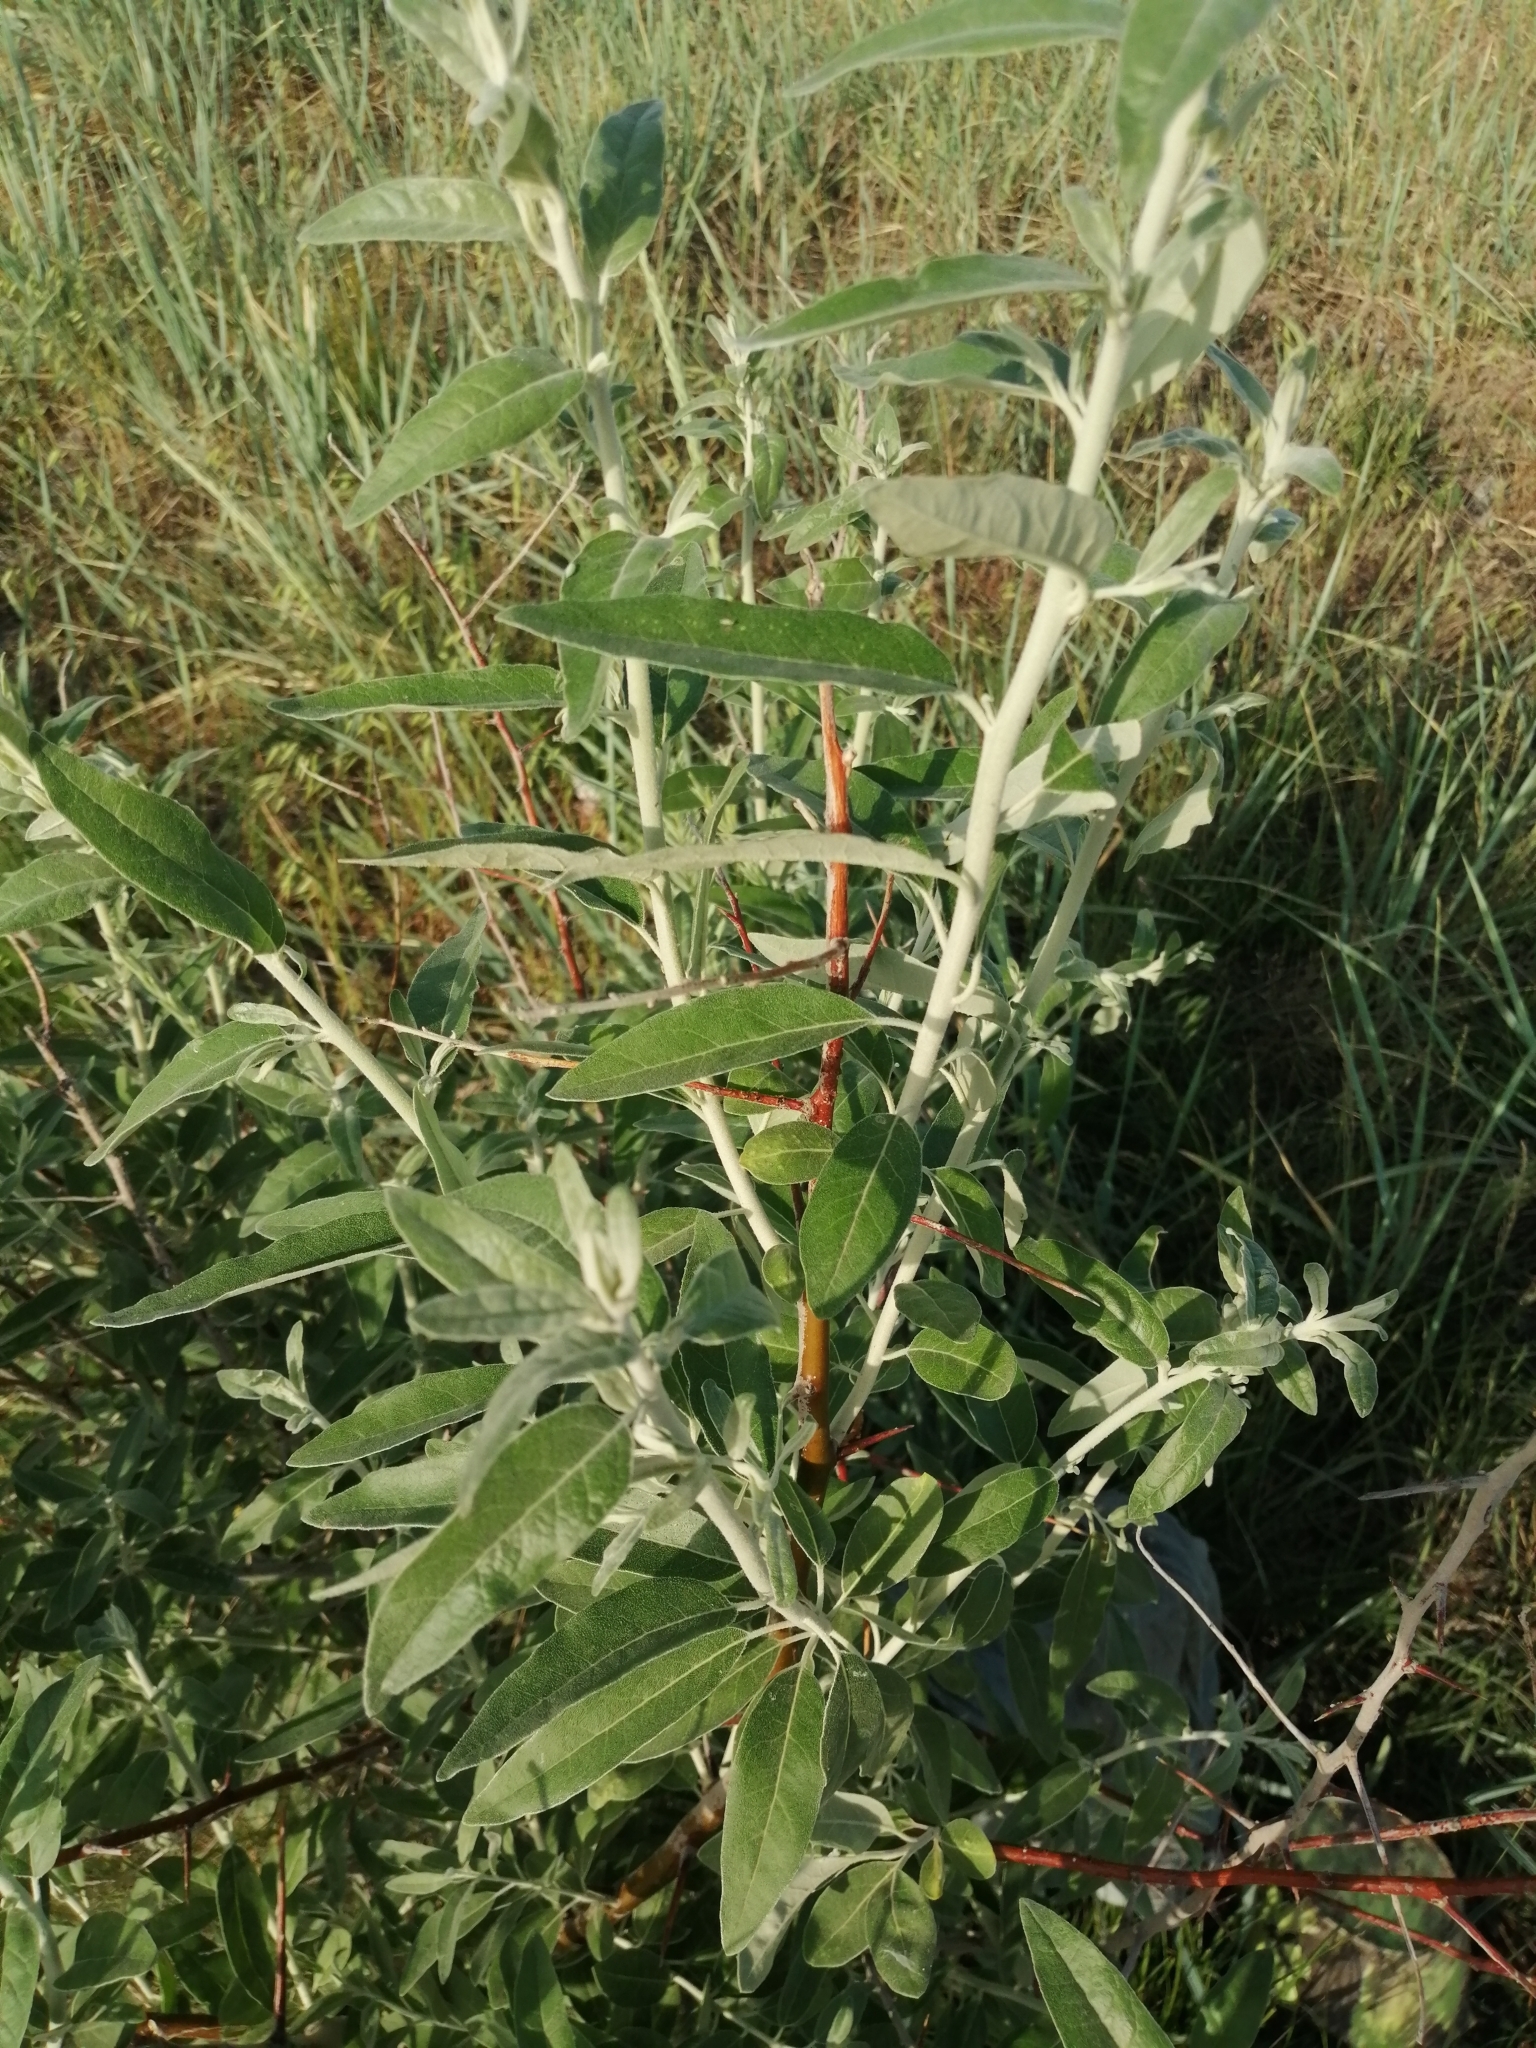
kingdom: Plantae
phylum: Tracheophyta
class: Magnoliopsida
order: Rosales
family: Elaeagnaceae
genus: Elaeagnus
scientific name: Elaeagnus angustifolia
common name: Russian olive
